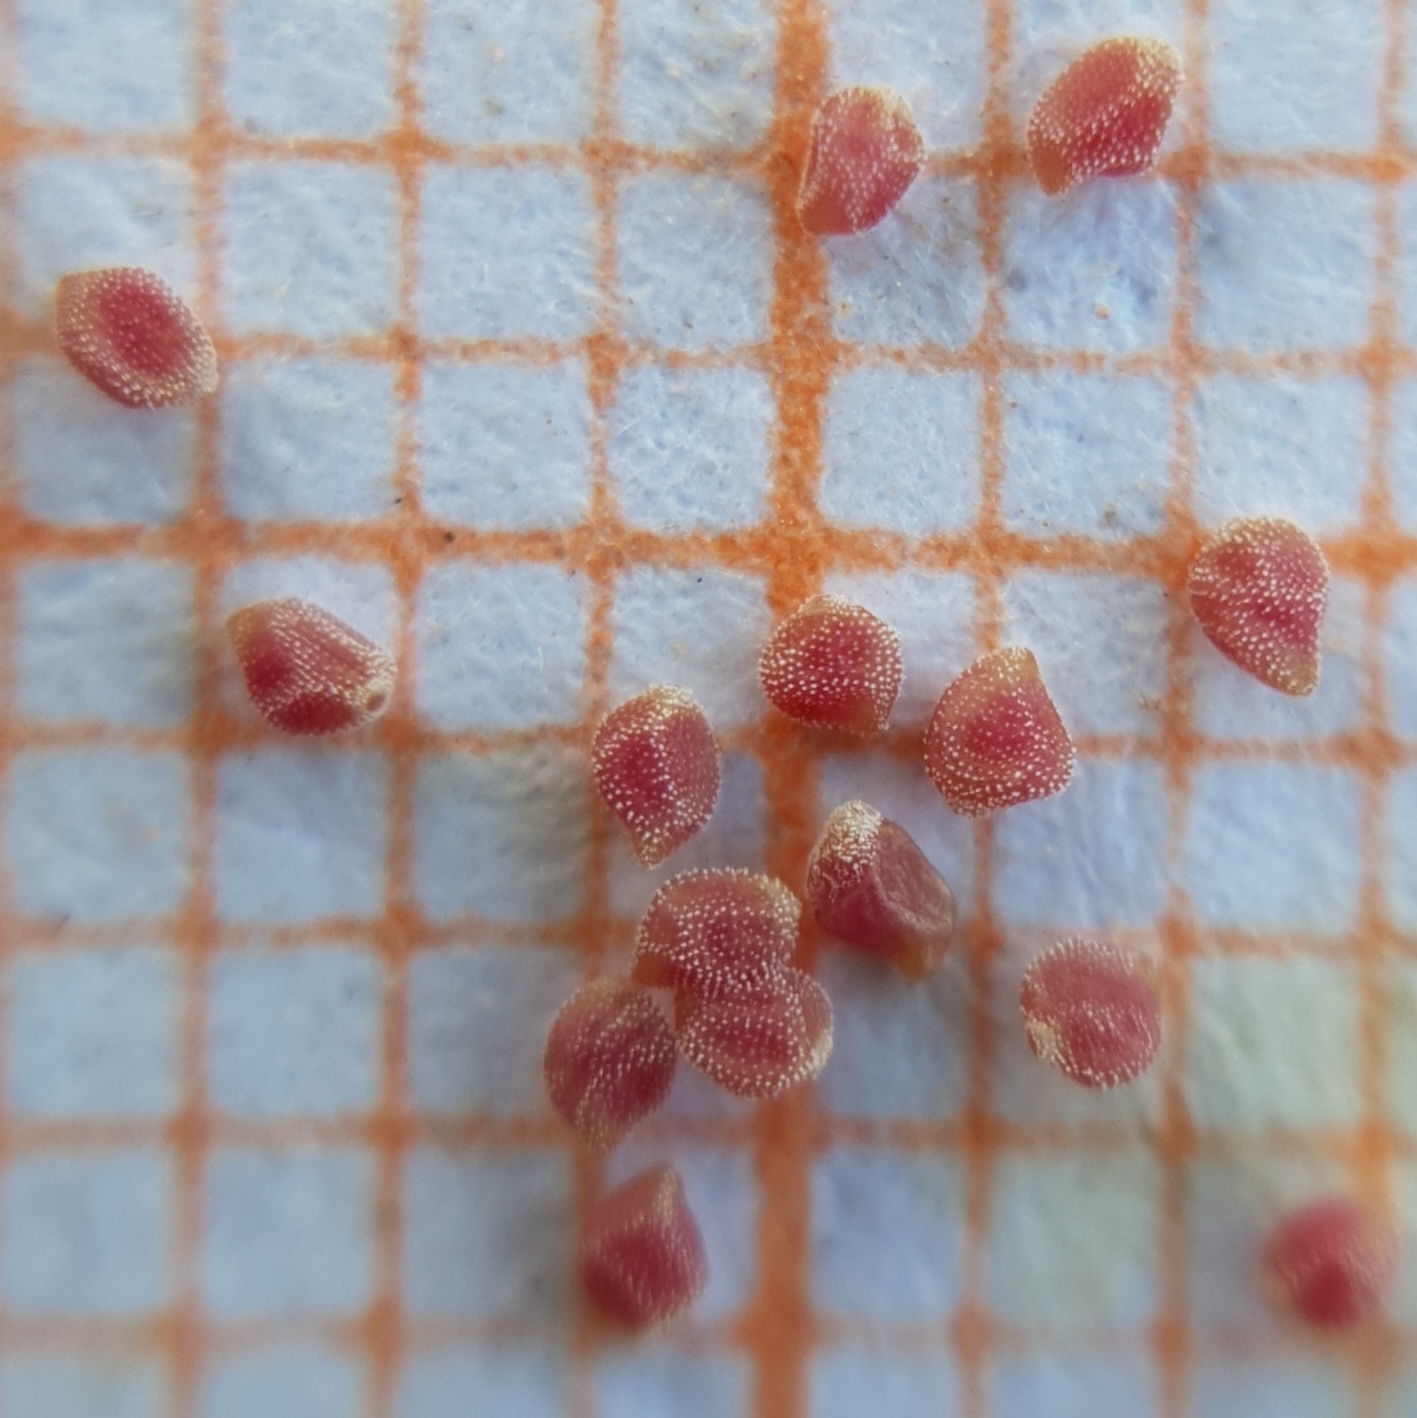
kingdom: Plantae
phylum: Tracheophyta
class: Magnoliopsida
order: Malvales
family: Cistaceae
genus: Helianthemum
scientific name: Helianthemum salicifolium
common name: Willowleaf frostweed
